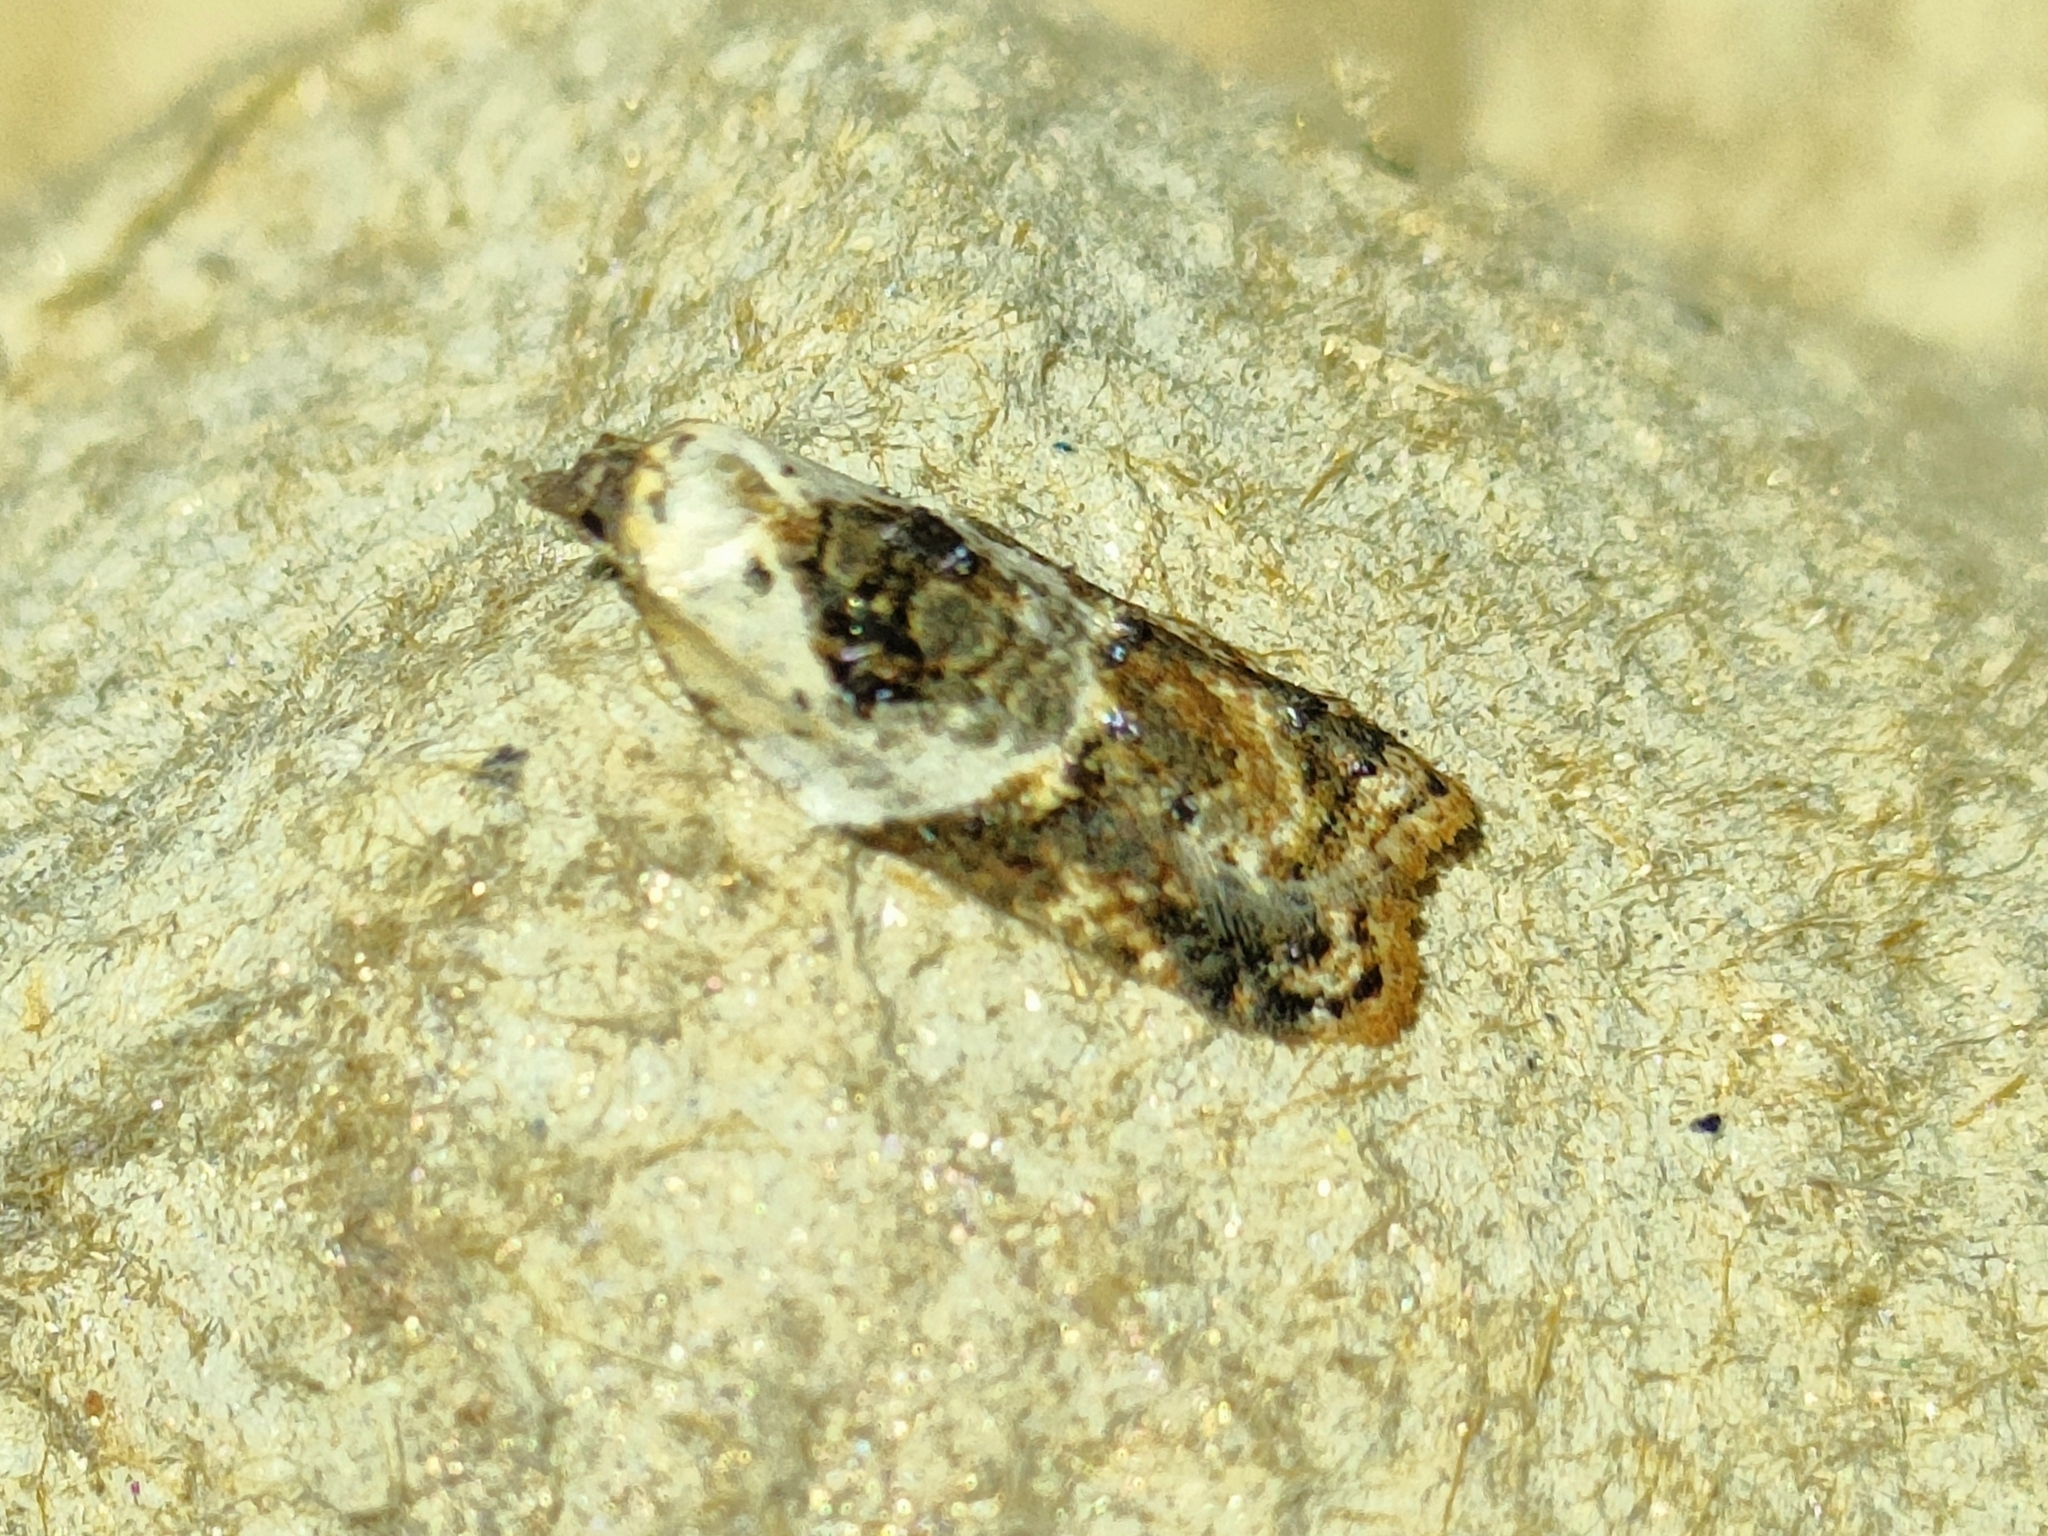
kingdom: Animalia
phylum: Arthropoda
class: Insecta
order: Lepidoptera
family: Tortricidae
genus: Acleris
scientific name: Acleris variegana
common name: Garden rose tortrix
